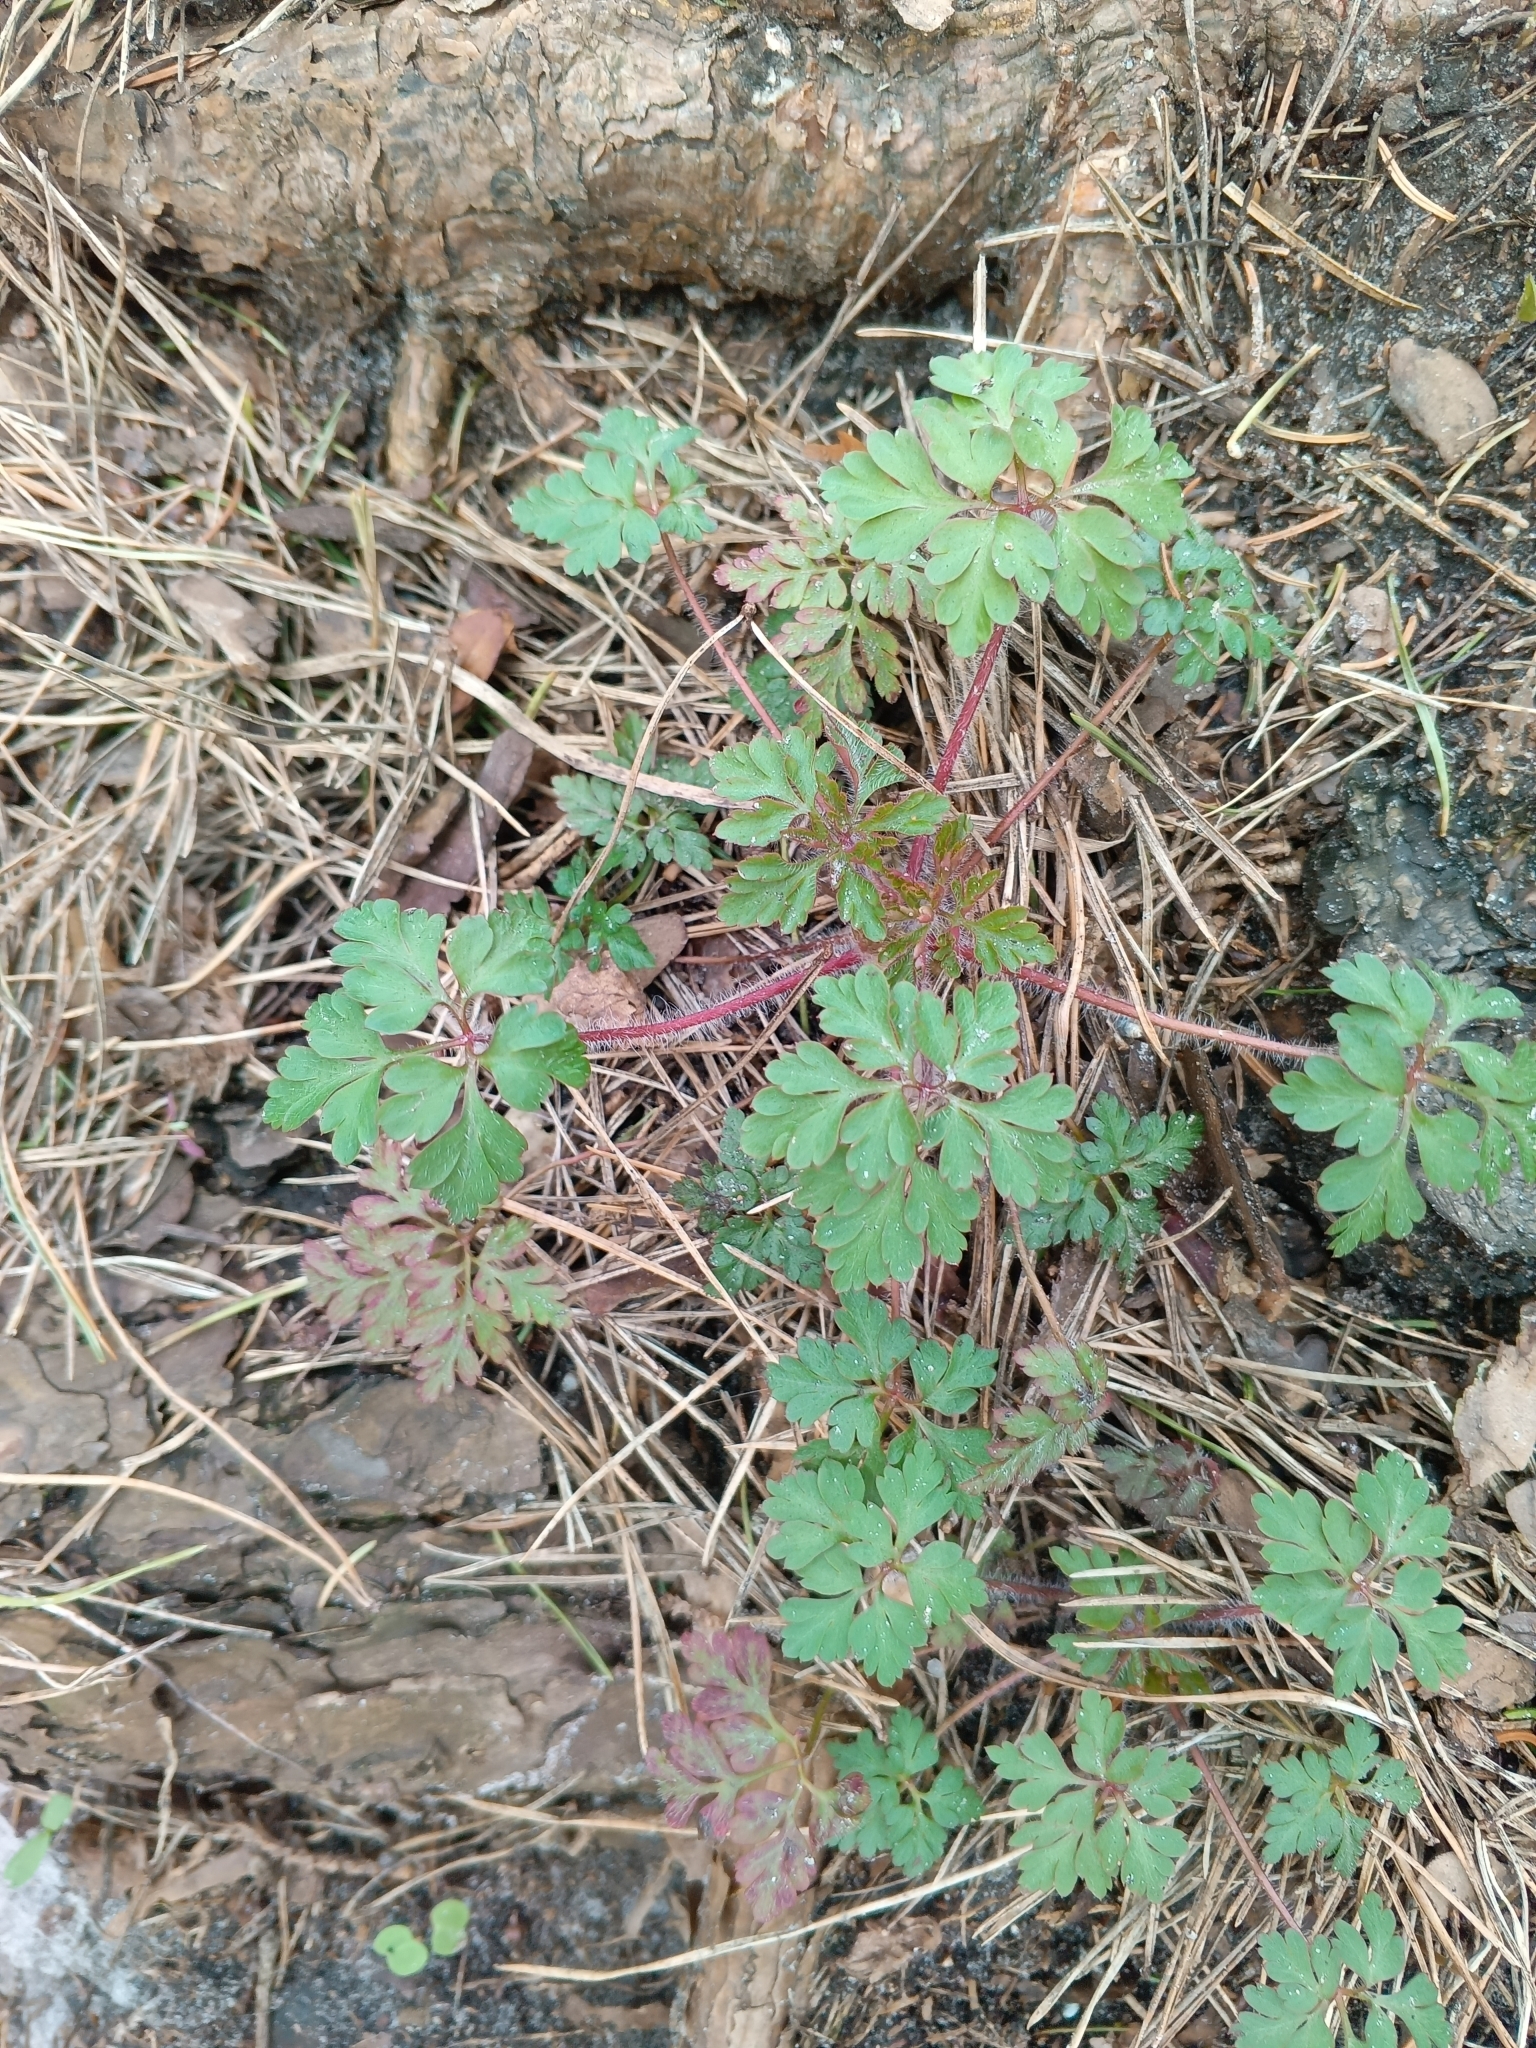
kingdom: Plantae
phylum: Tracheophyta
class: Magnoliopsida
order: Geraniales
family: Geraniaceae
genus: Geranium
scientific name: Geranium robertianum
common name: Herb-robert
